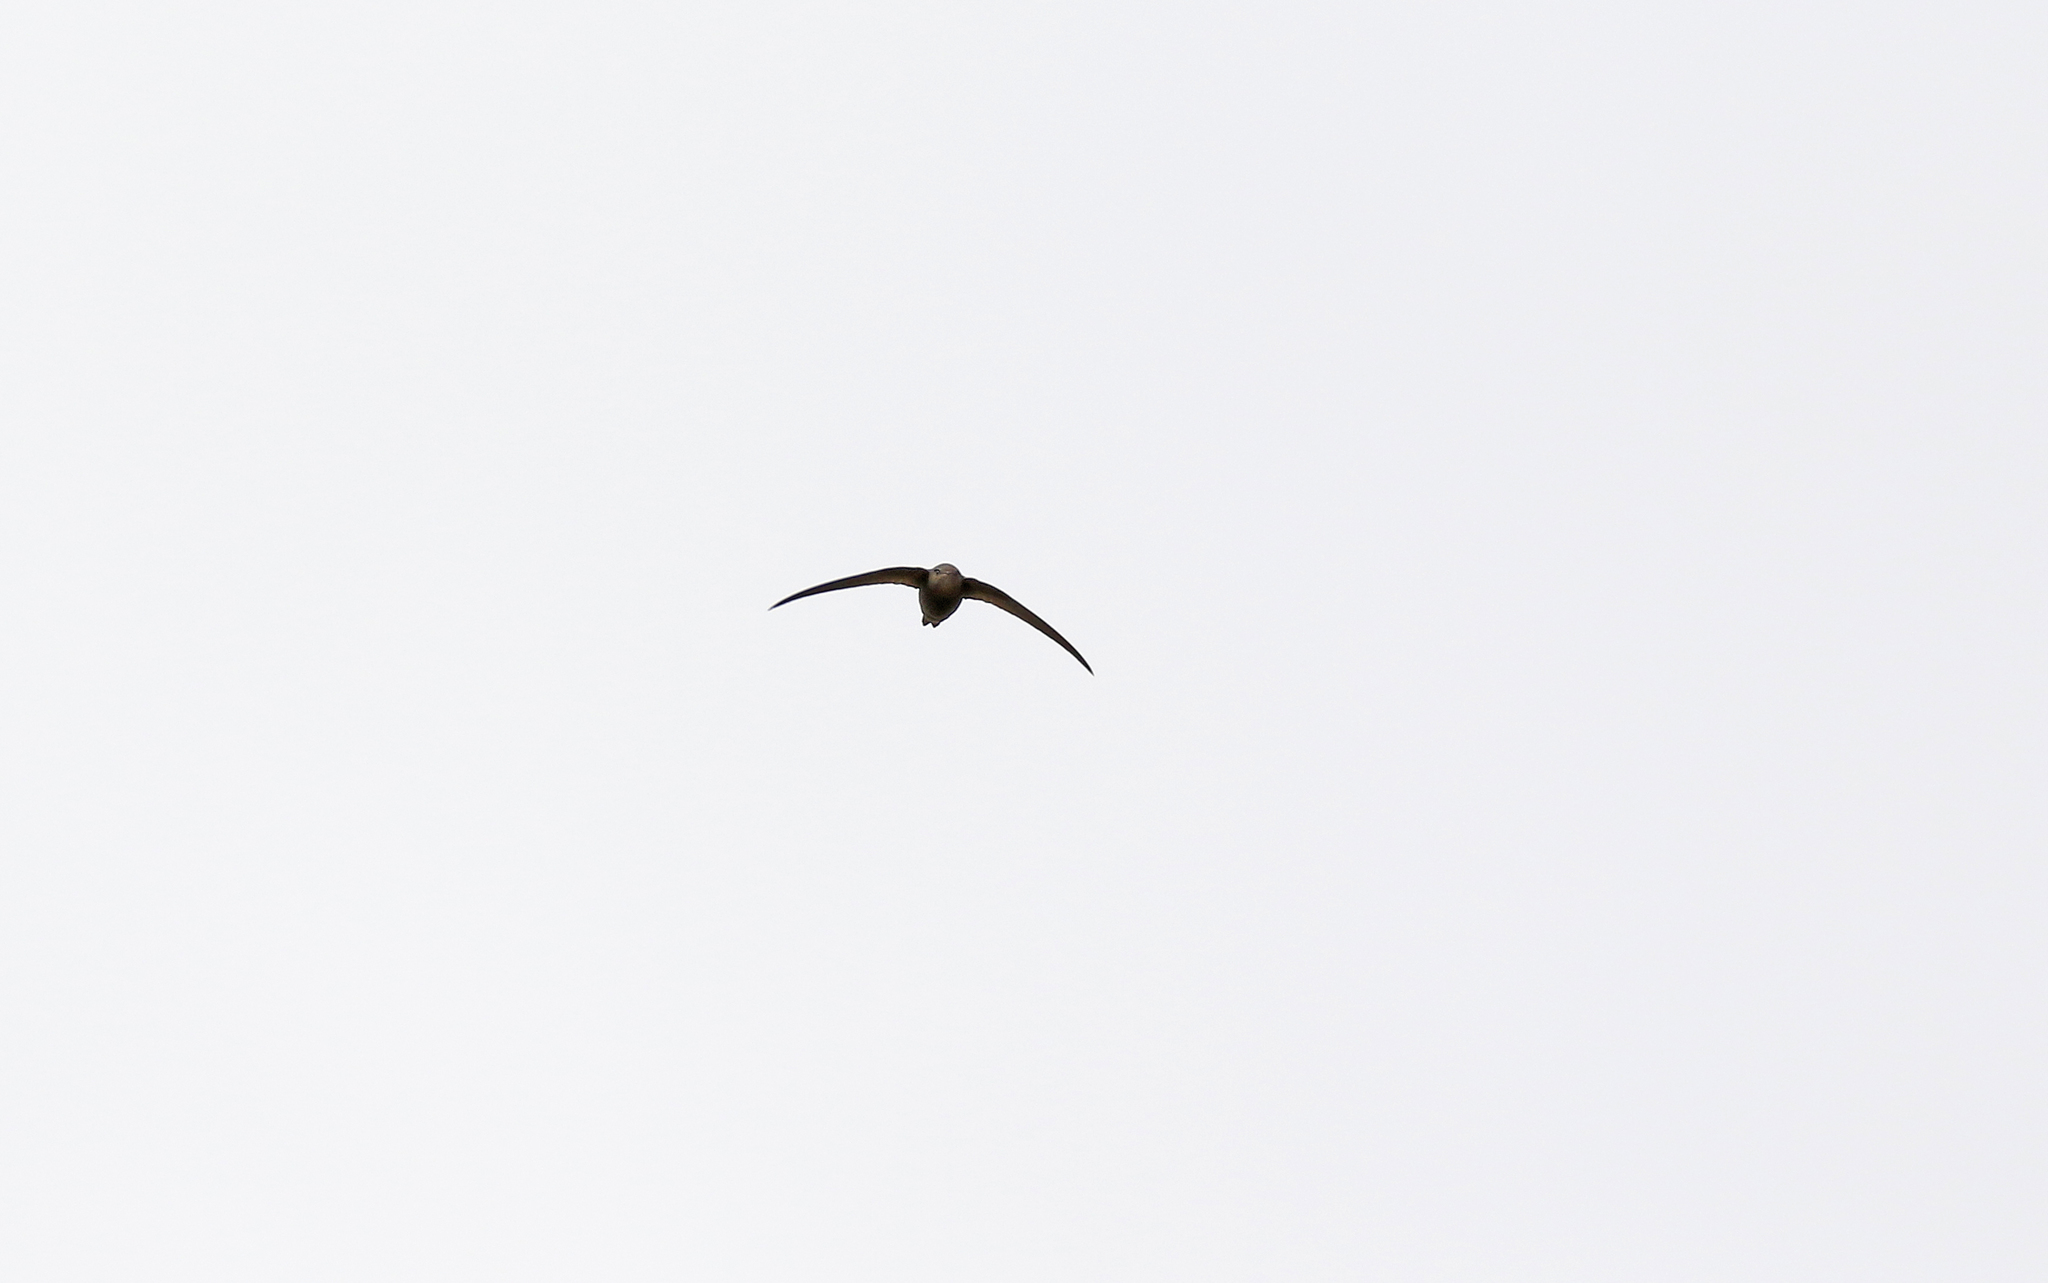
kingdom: Animalia
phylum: Chordata
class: Aves
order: Apodiformes
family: Apodidae
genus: Apus
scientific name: Apus pallidus
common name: Pallid swift
